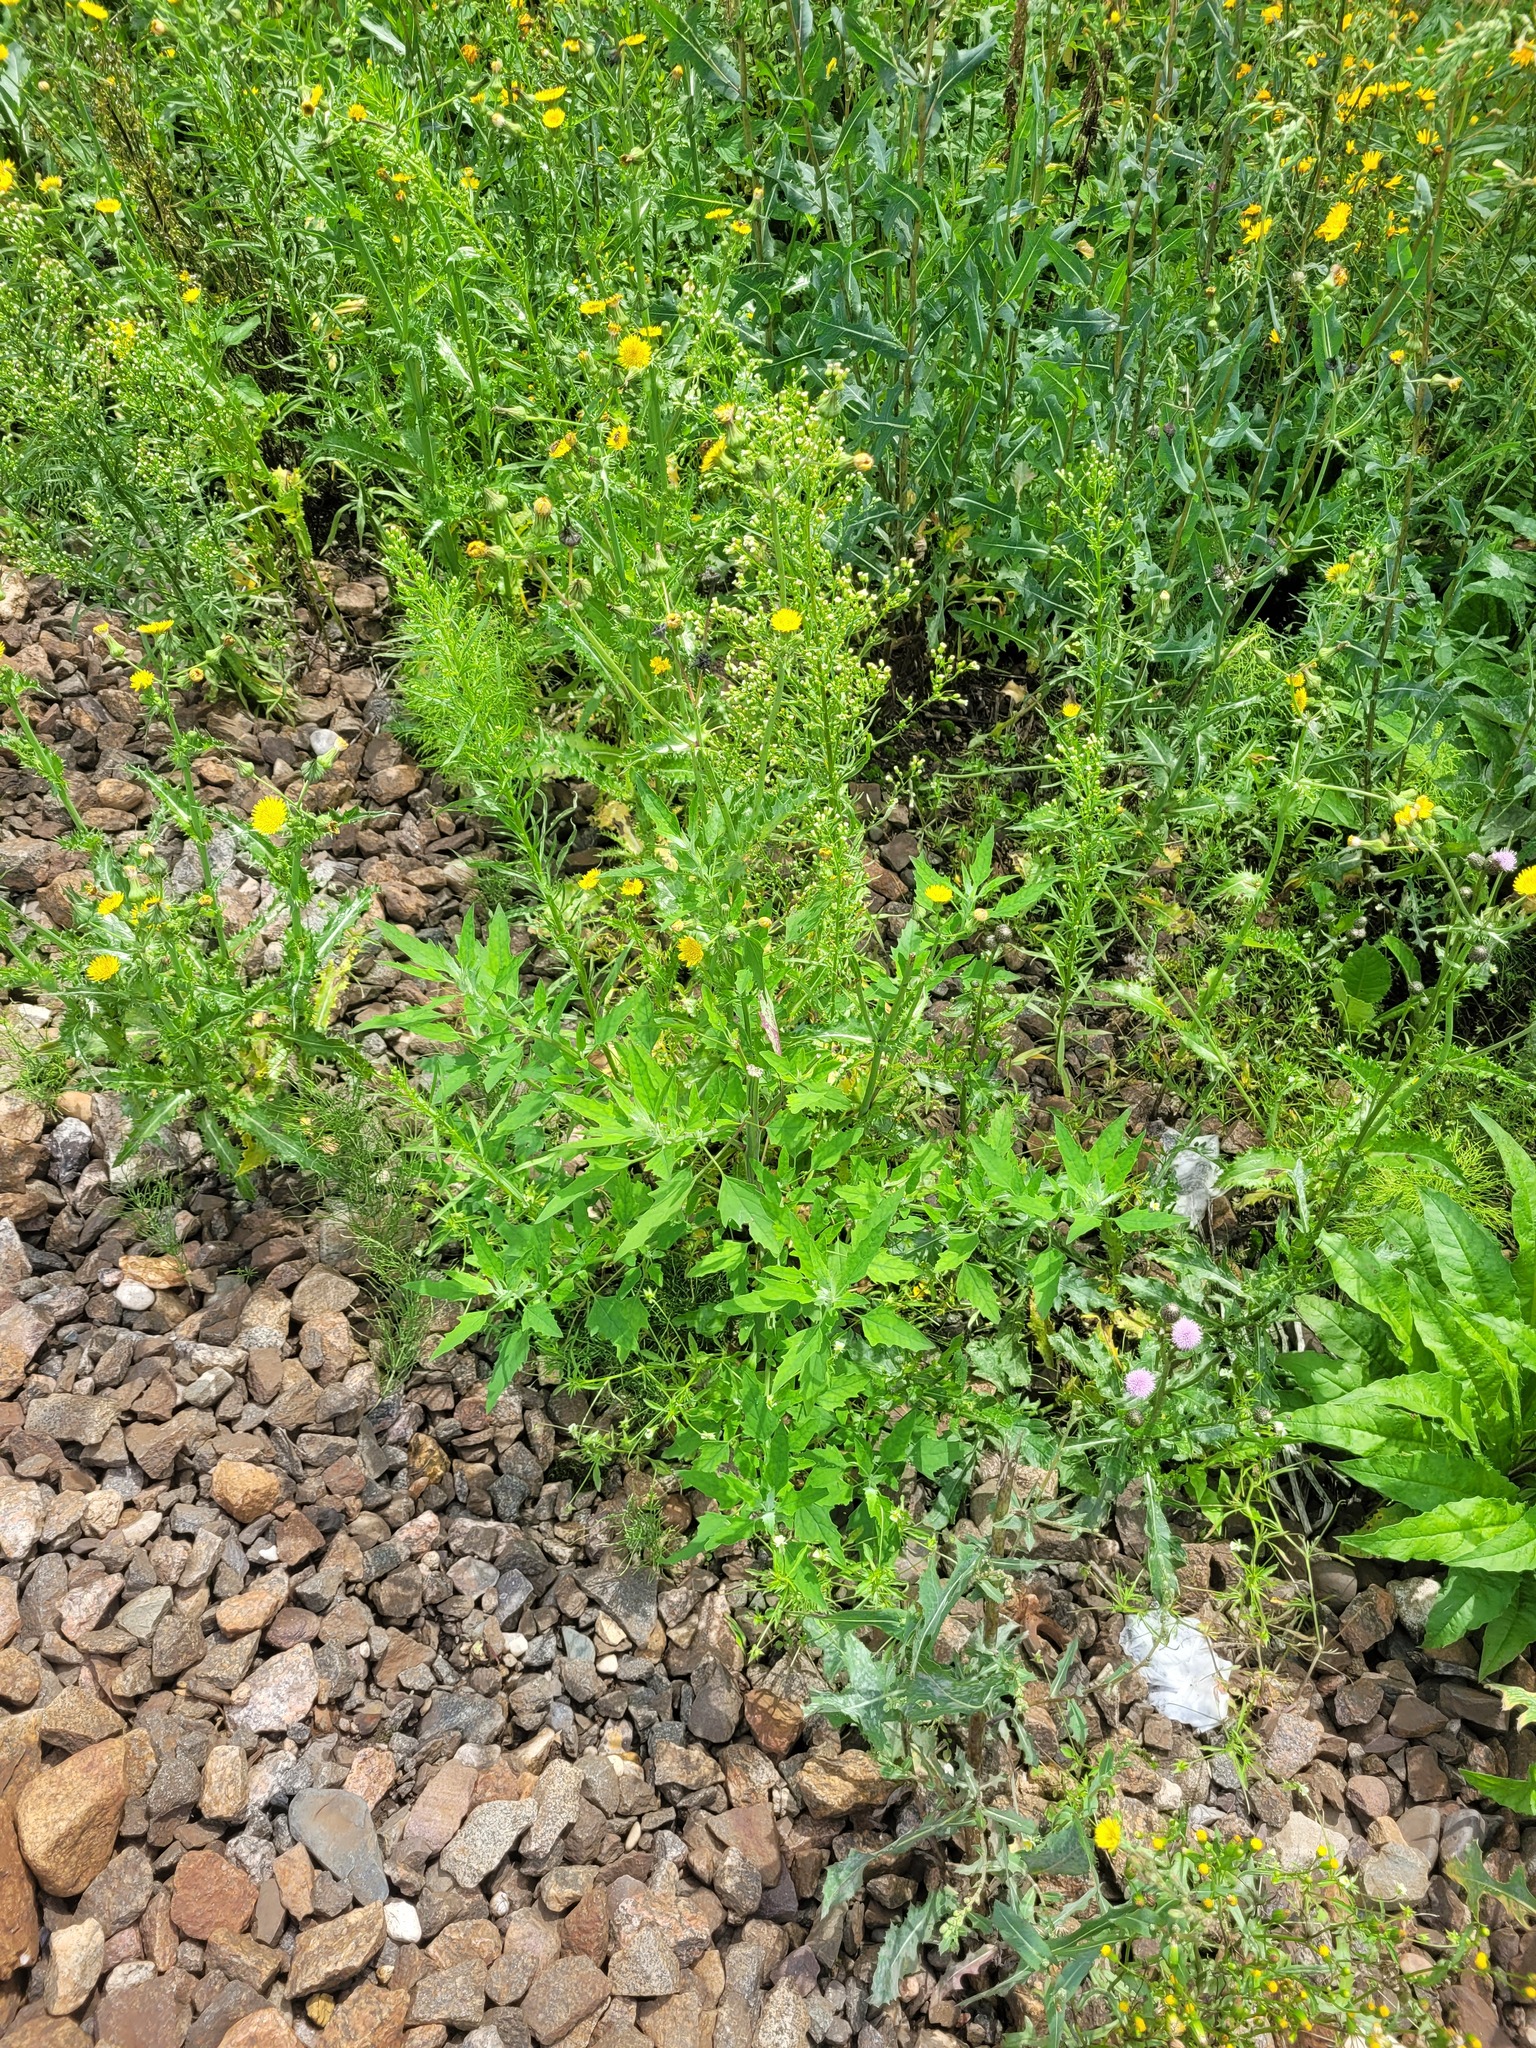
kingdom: Plantae
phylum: Tracheophyta
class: Magnoliopsida
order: Caryophyllales
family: Amaranthaceae
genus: Chenopodium
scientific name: Chenopodium album
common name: Fat-hen
